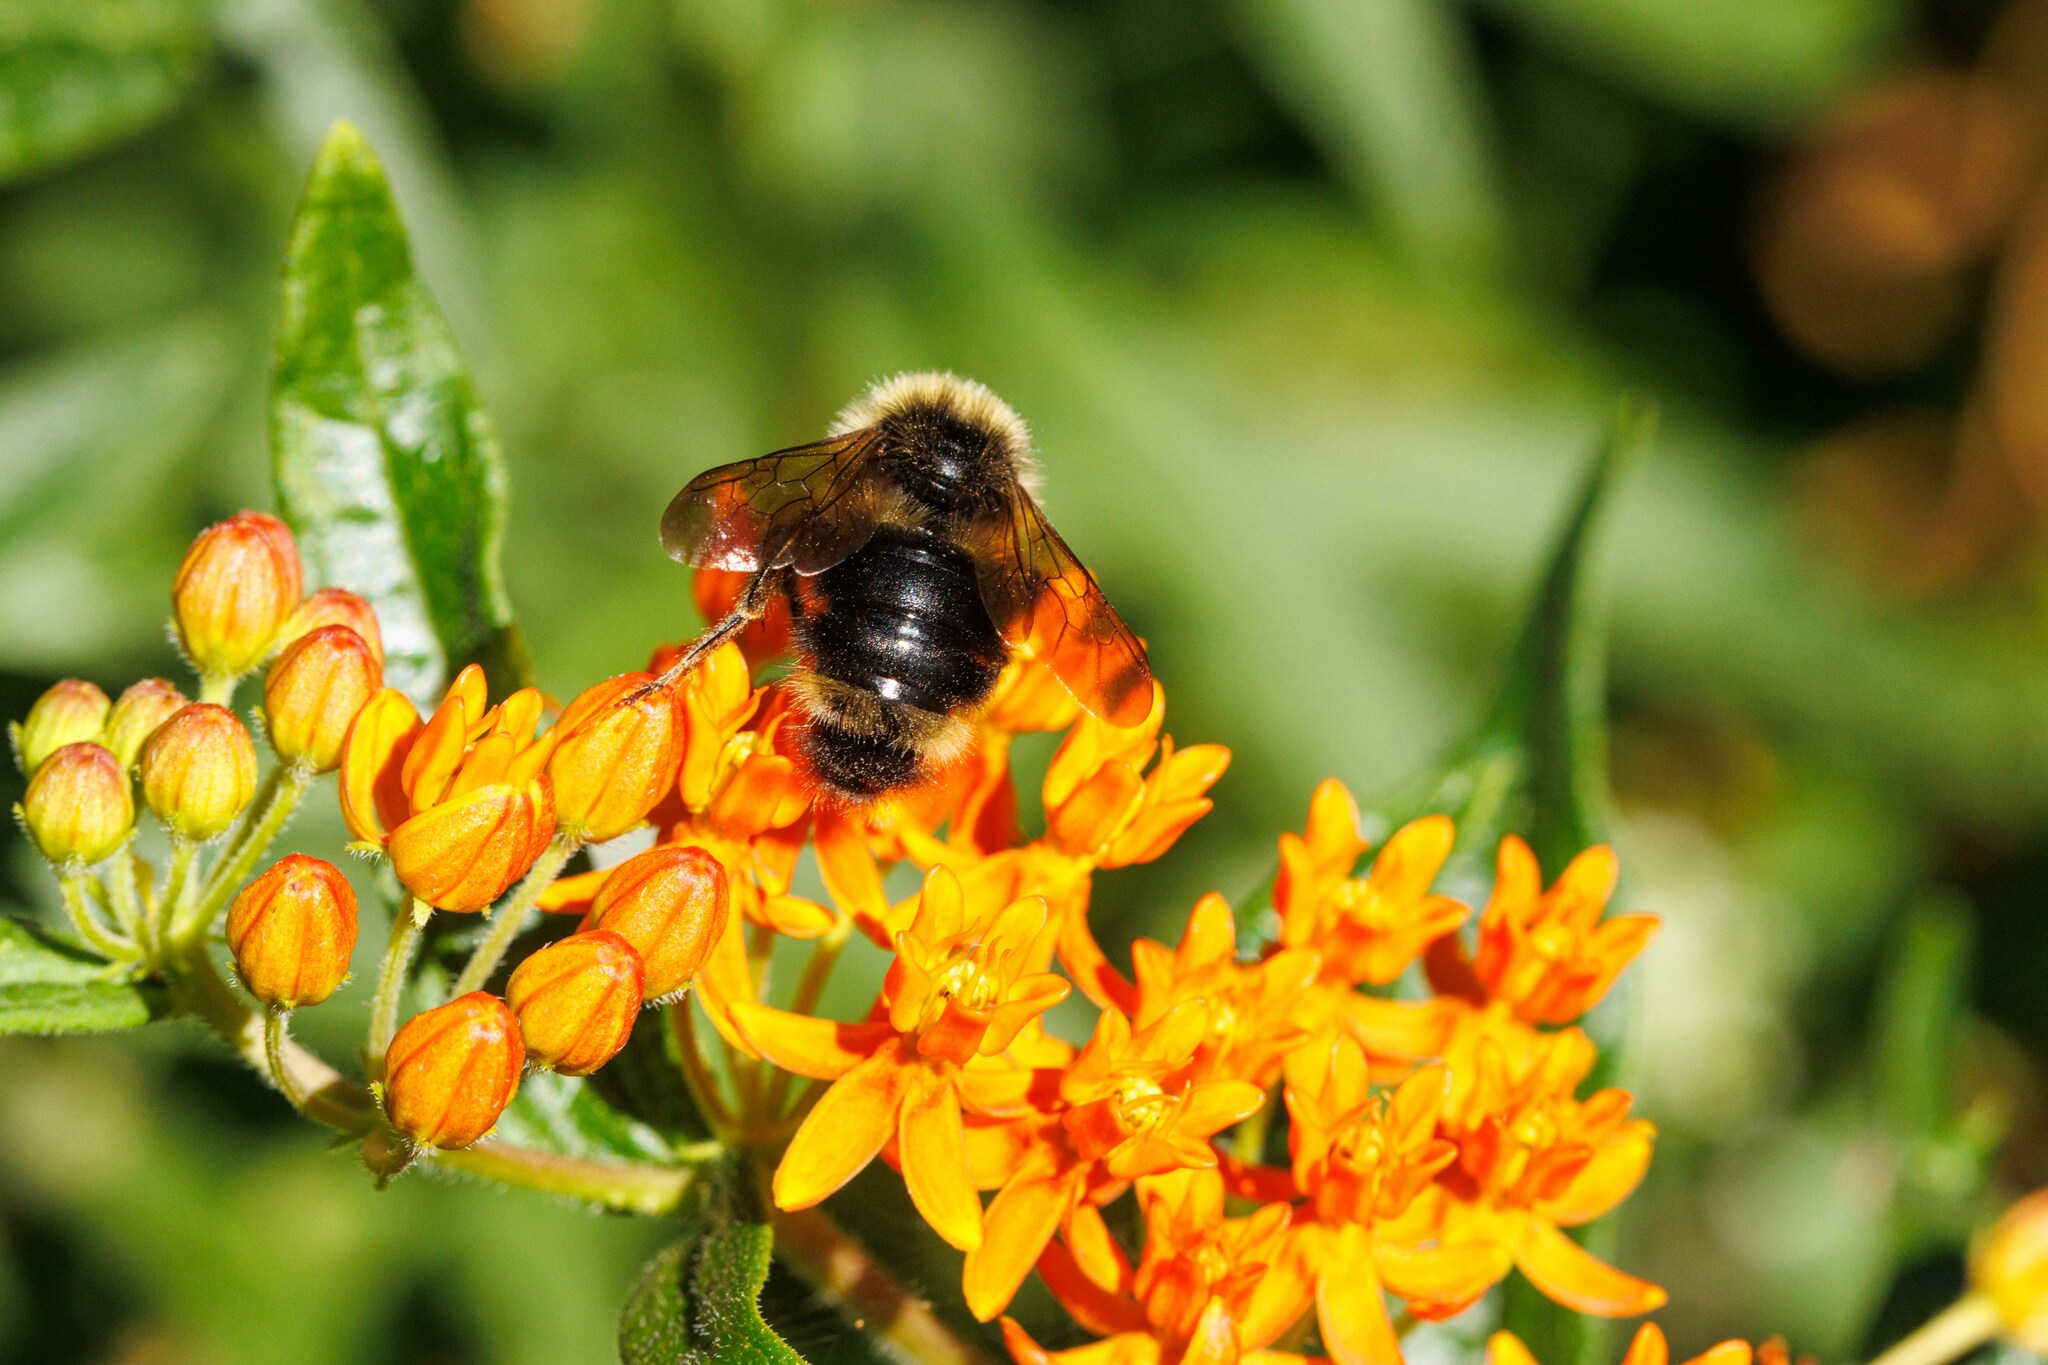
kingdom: Animalia
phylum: Arthropoda
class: Insecta
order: Hymenoptera
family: Apidae
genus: Bombus
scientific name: Bombus flavidus
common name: Fernald cuckoo bumble bee
